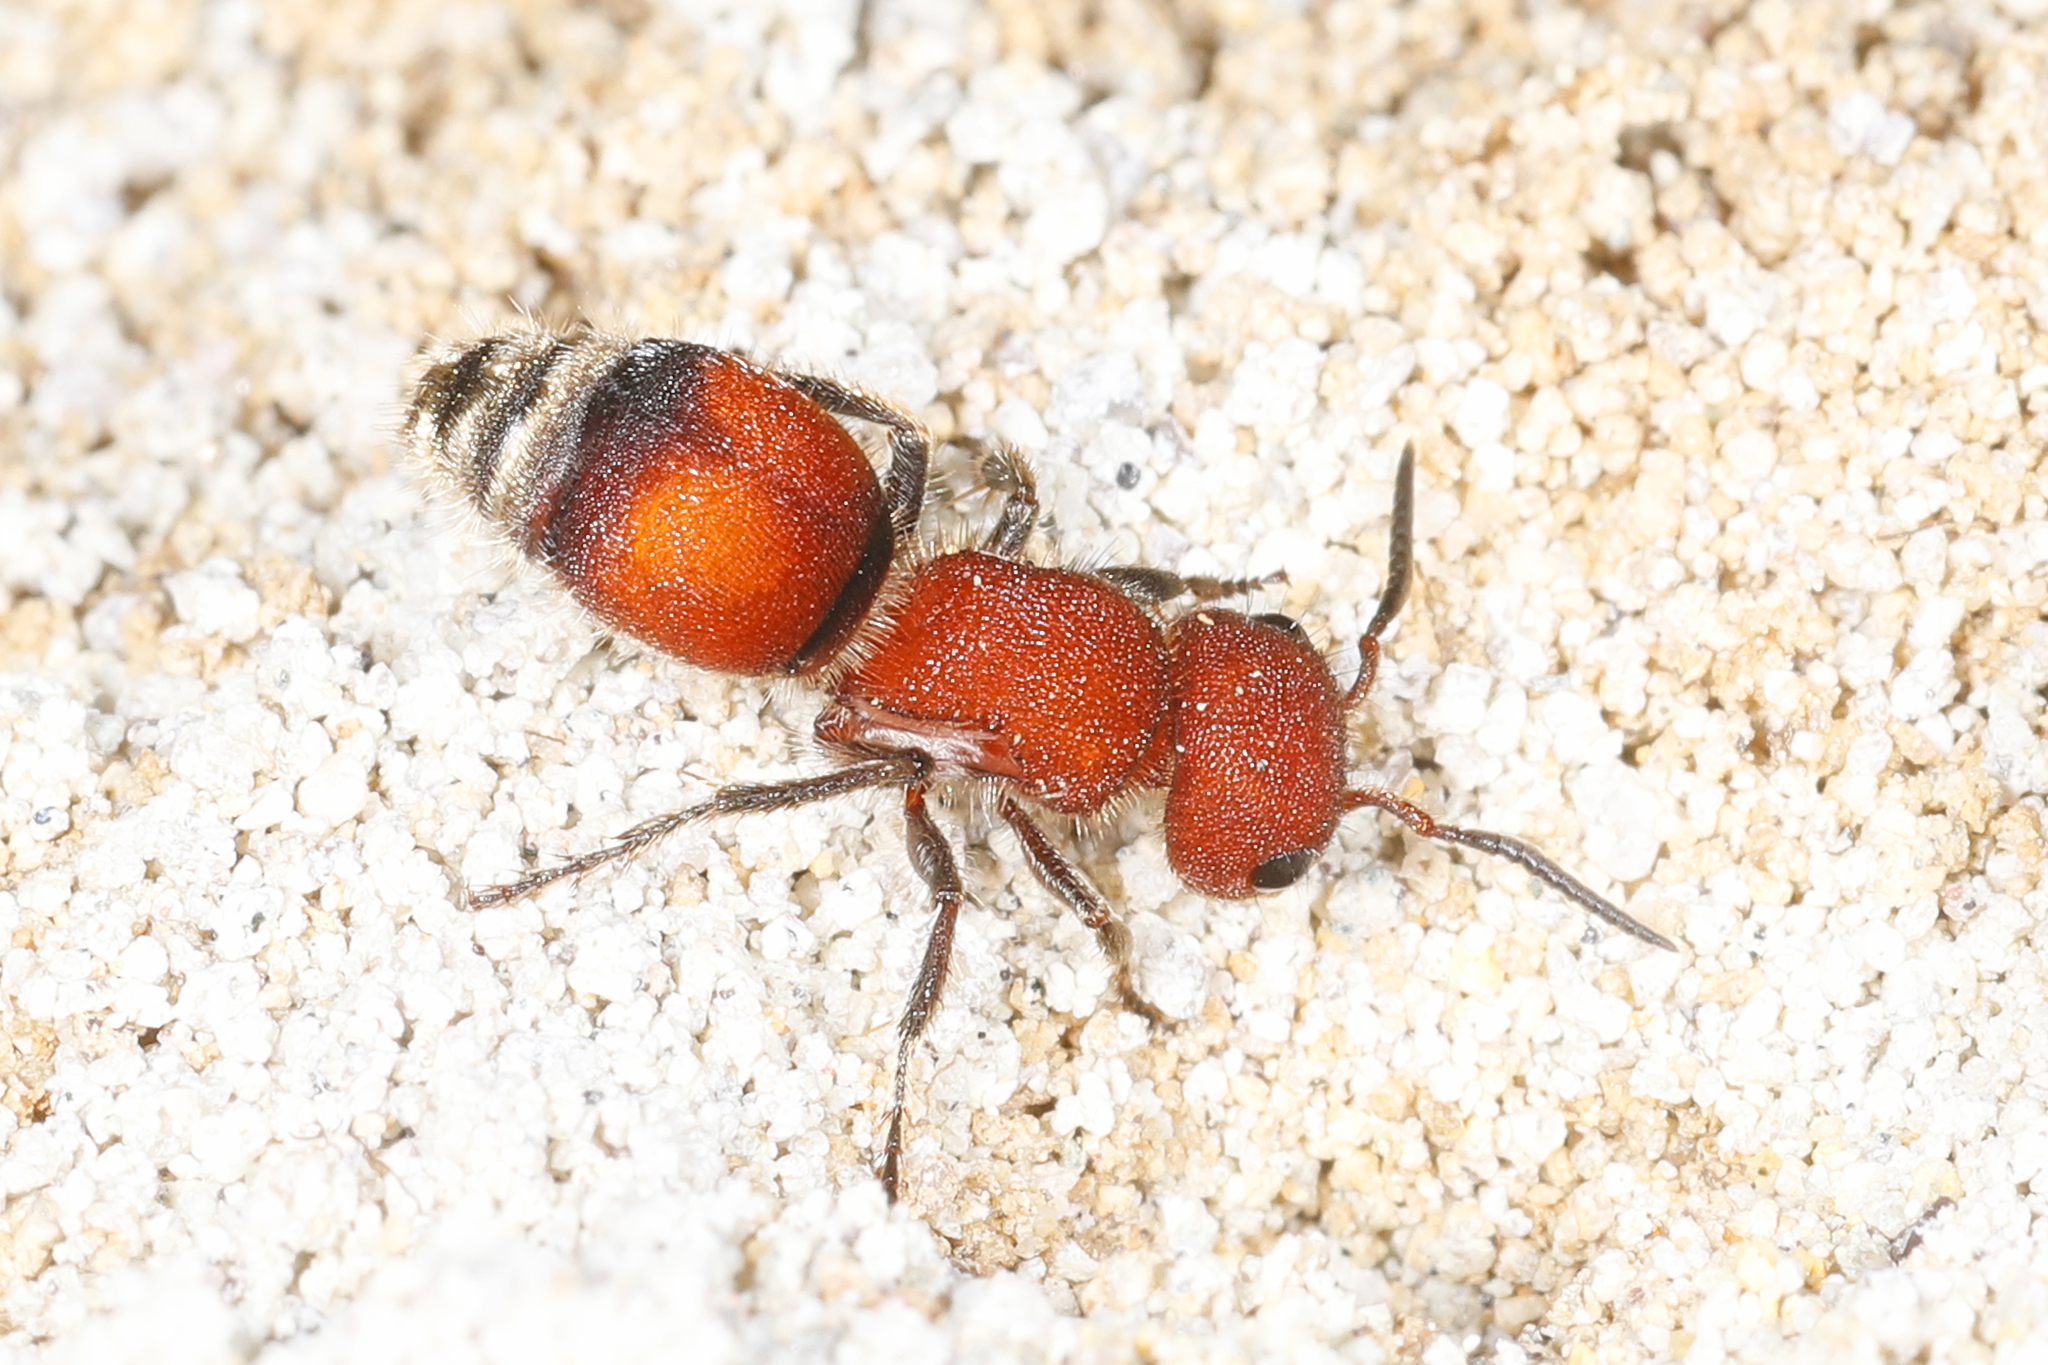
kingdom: Animalia
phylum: Arthropoda
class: Insecta
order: Hymenoptera
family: Mutillidae
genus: Pseudomethoca
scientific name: Pseudomethoca
